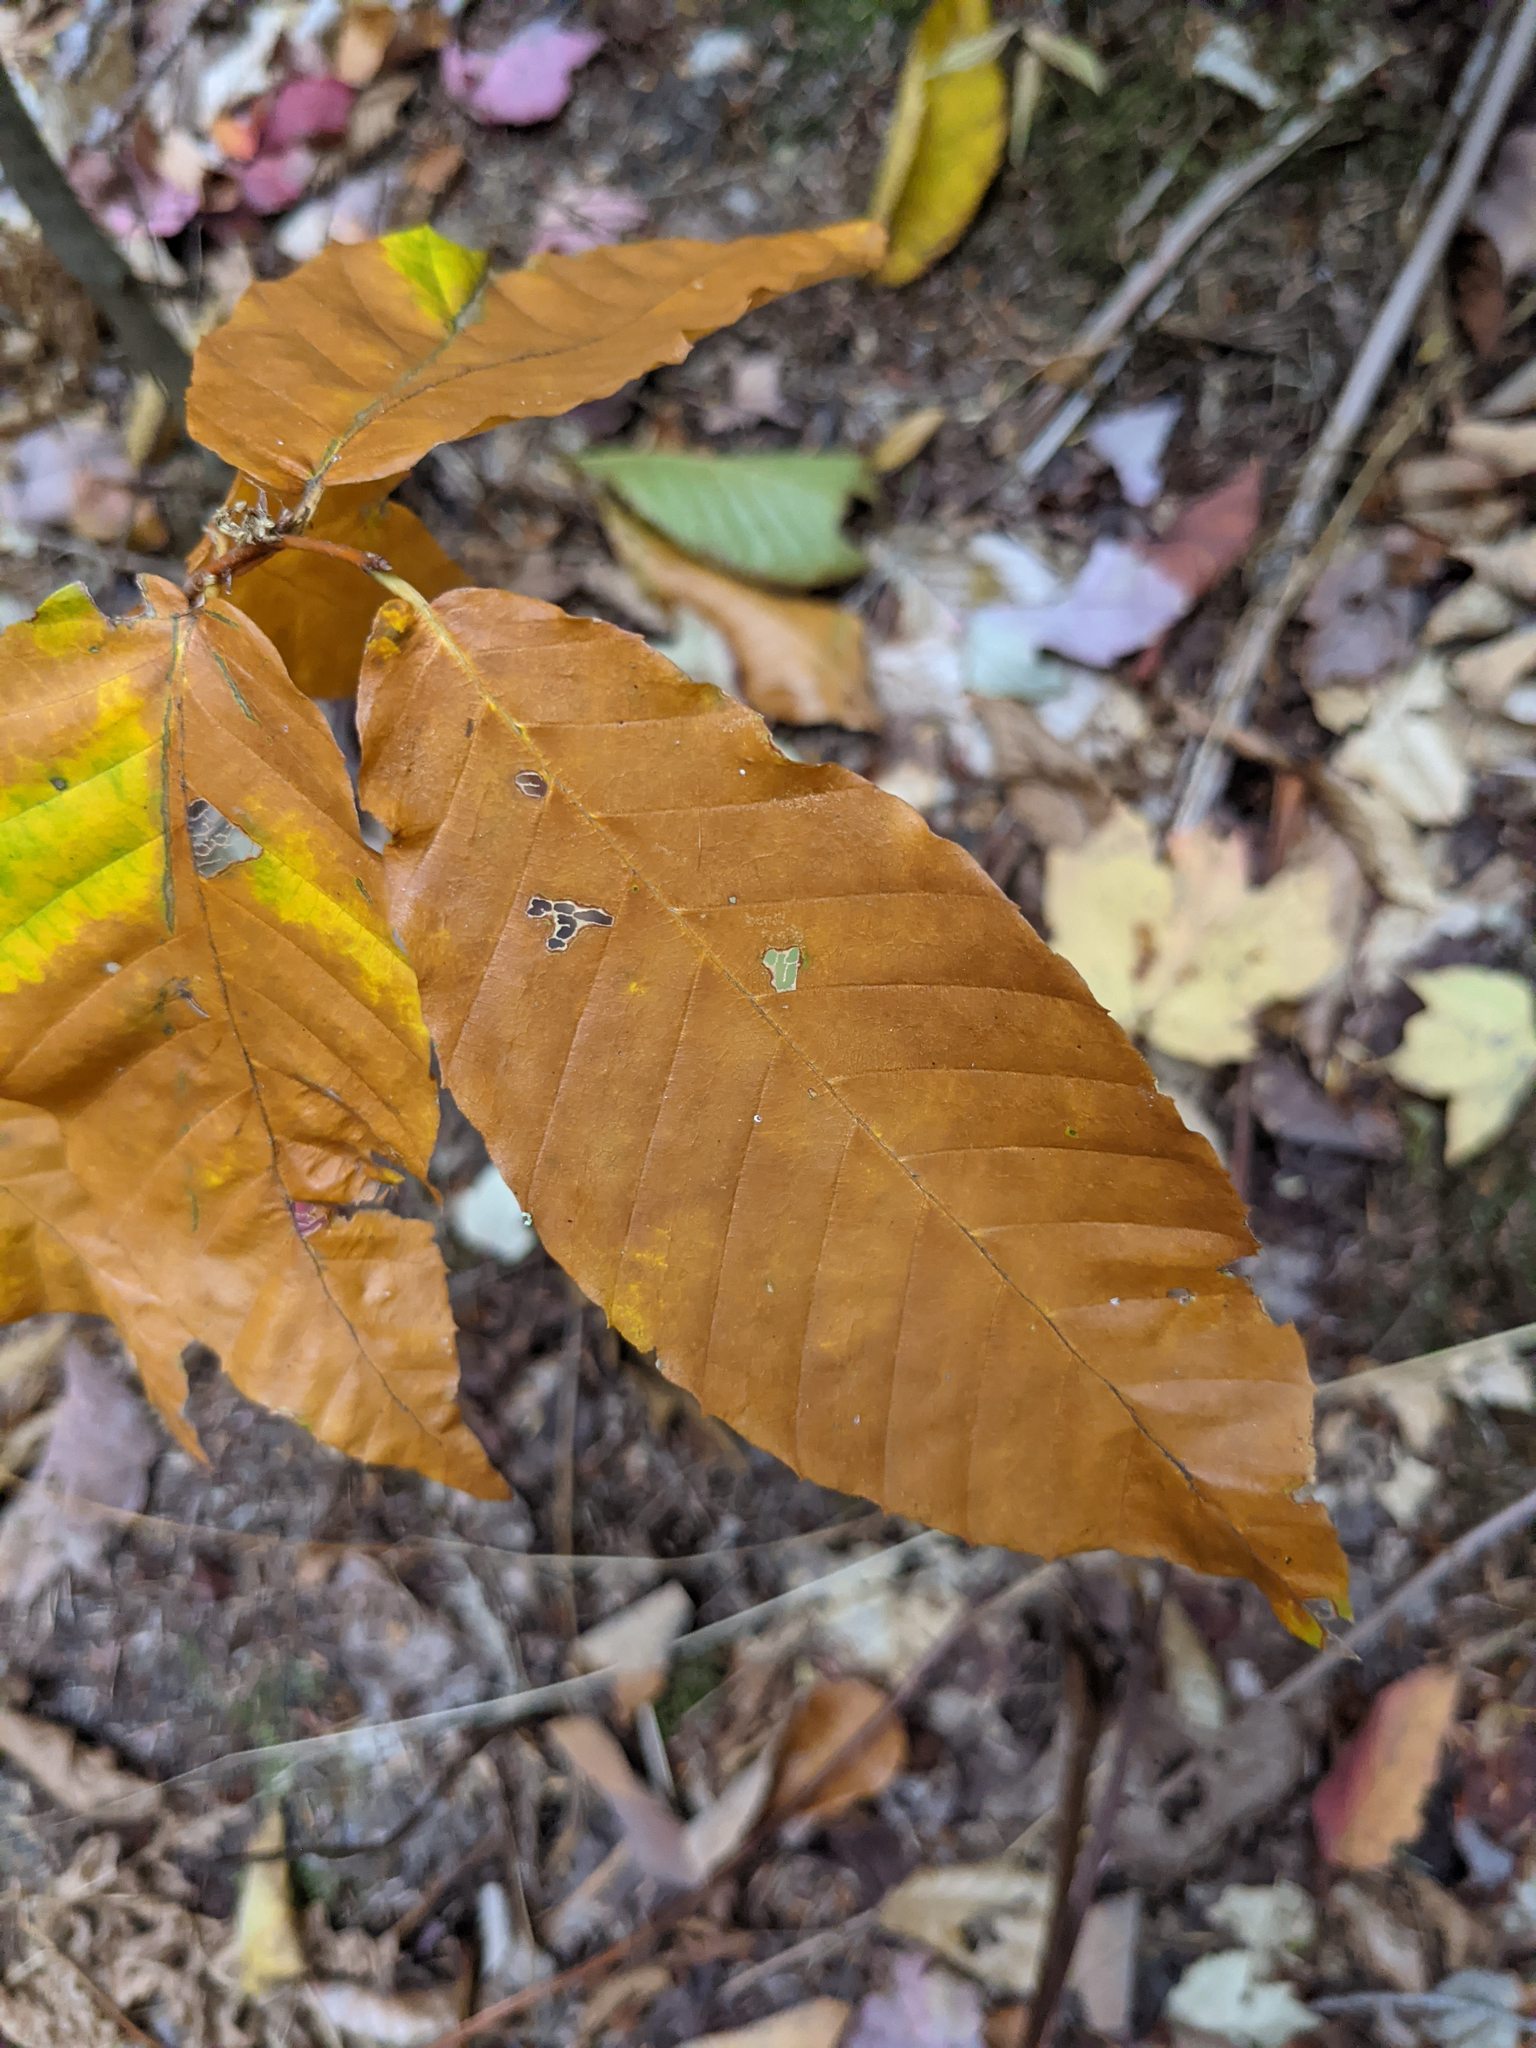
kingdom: Plantae
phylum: Tracheophyta
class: Magnoliopsida
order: Fagales
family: Fagaceae
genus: Fagus
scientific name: Fagus grandifolia
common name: American beech
